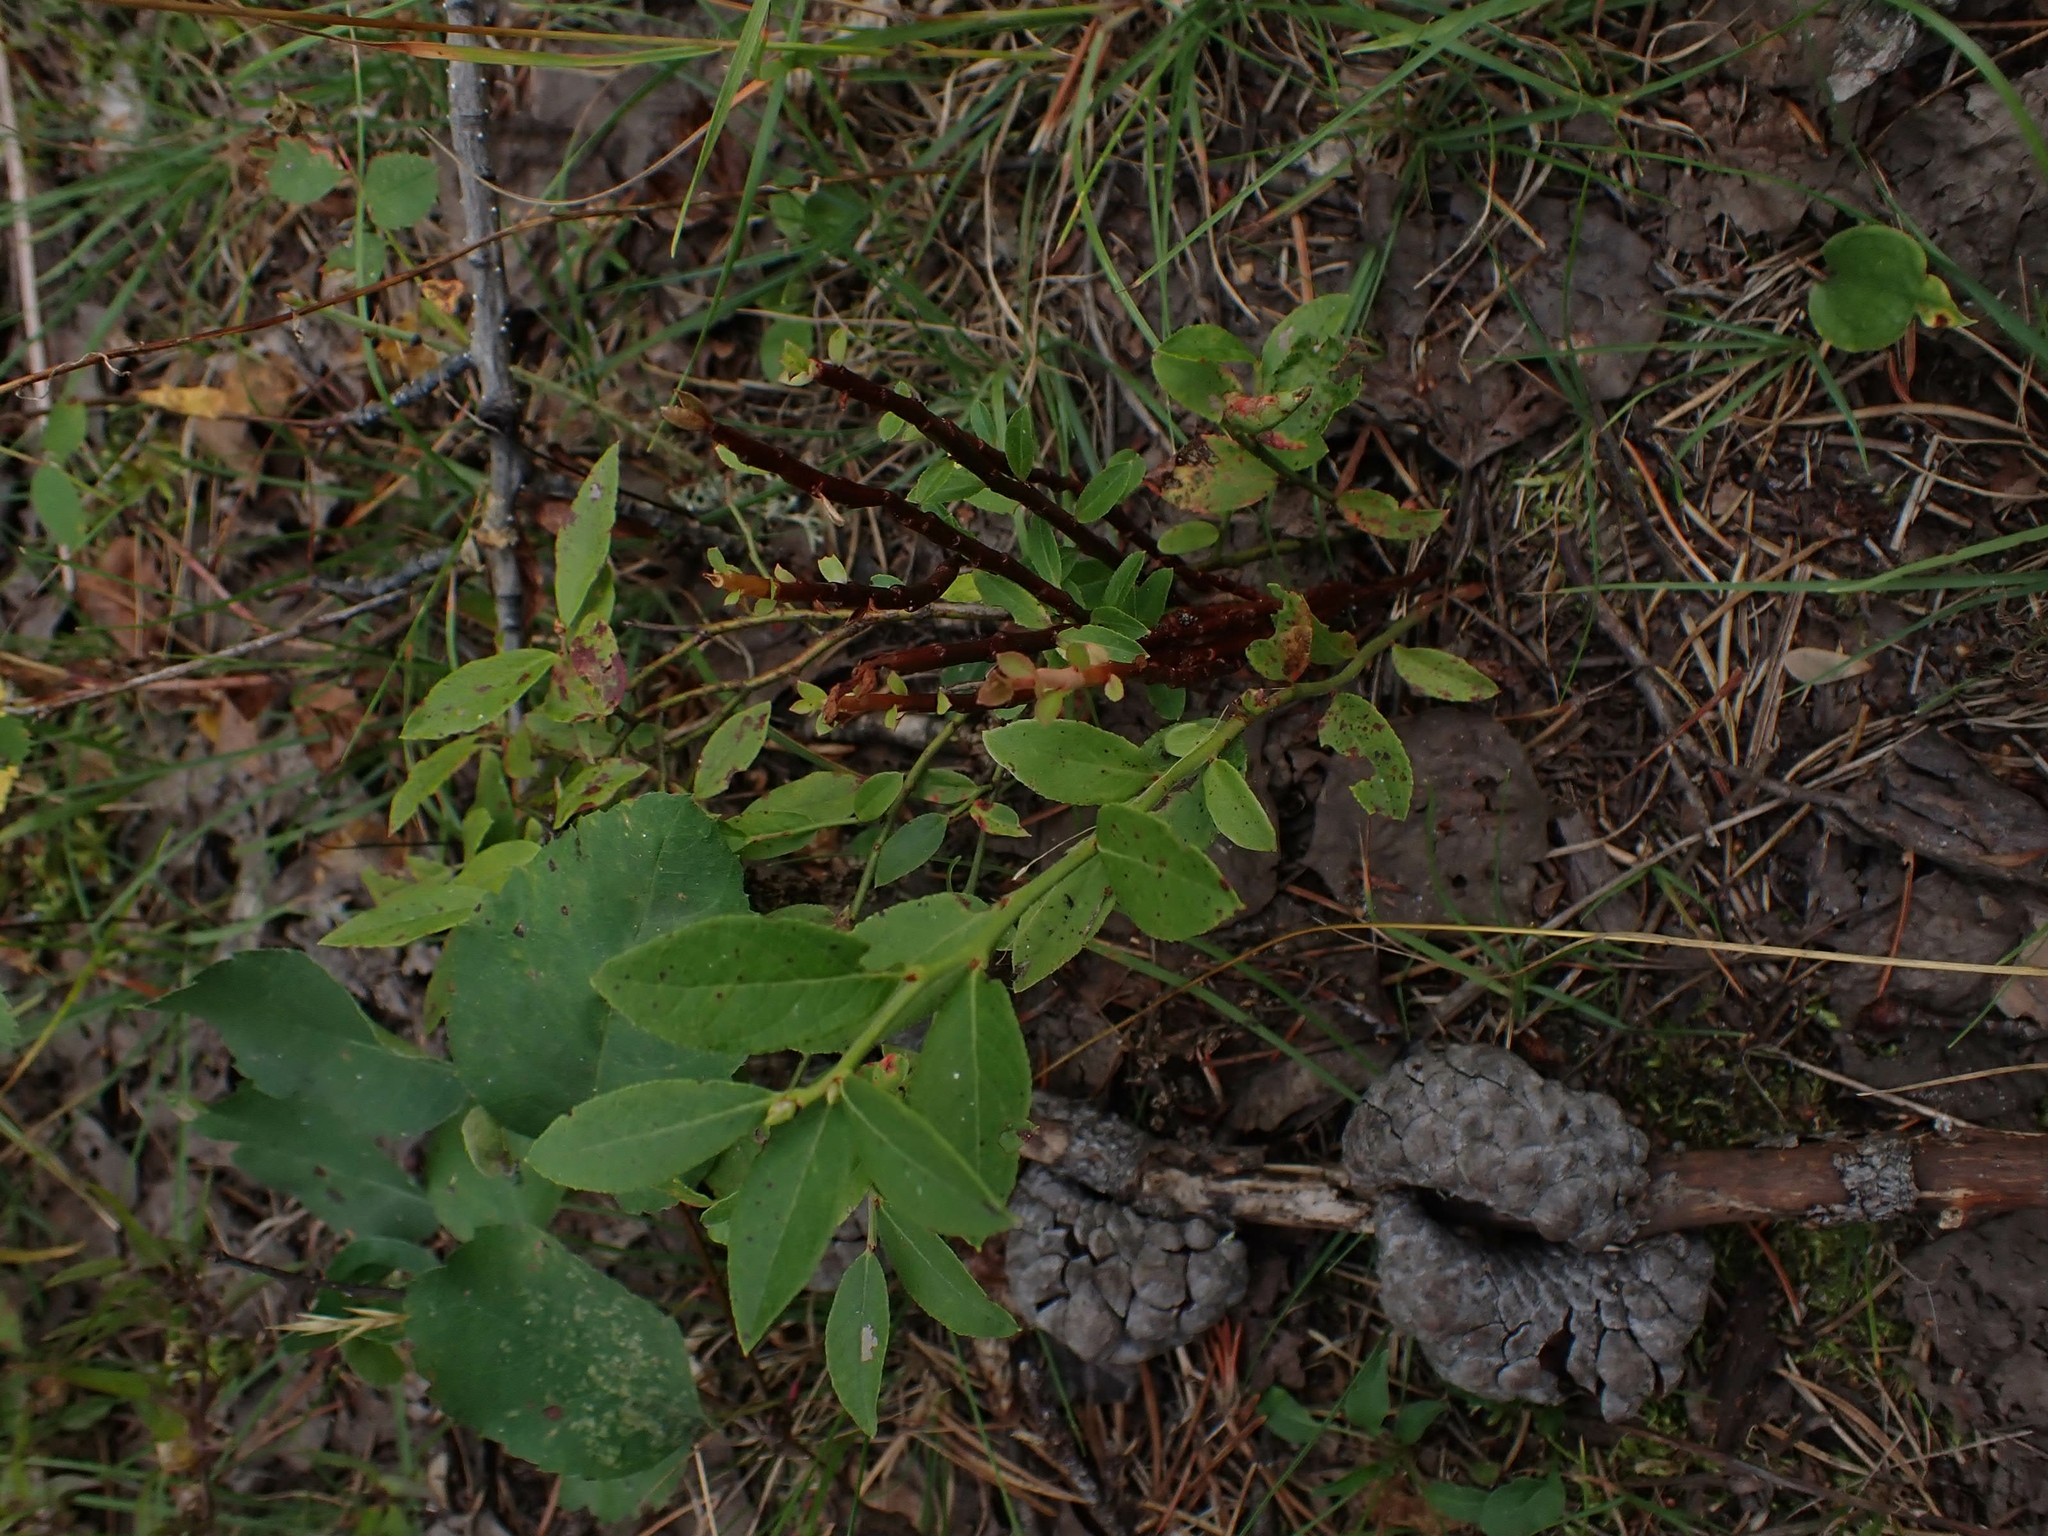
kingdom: Plantae
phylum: Tracheophyta
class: Magnoliopsida
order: Ericales
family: Ericaceae
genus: Vaccinium
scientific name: Vaccinium angustifolium
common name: Early lowbush blueberry
